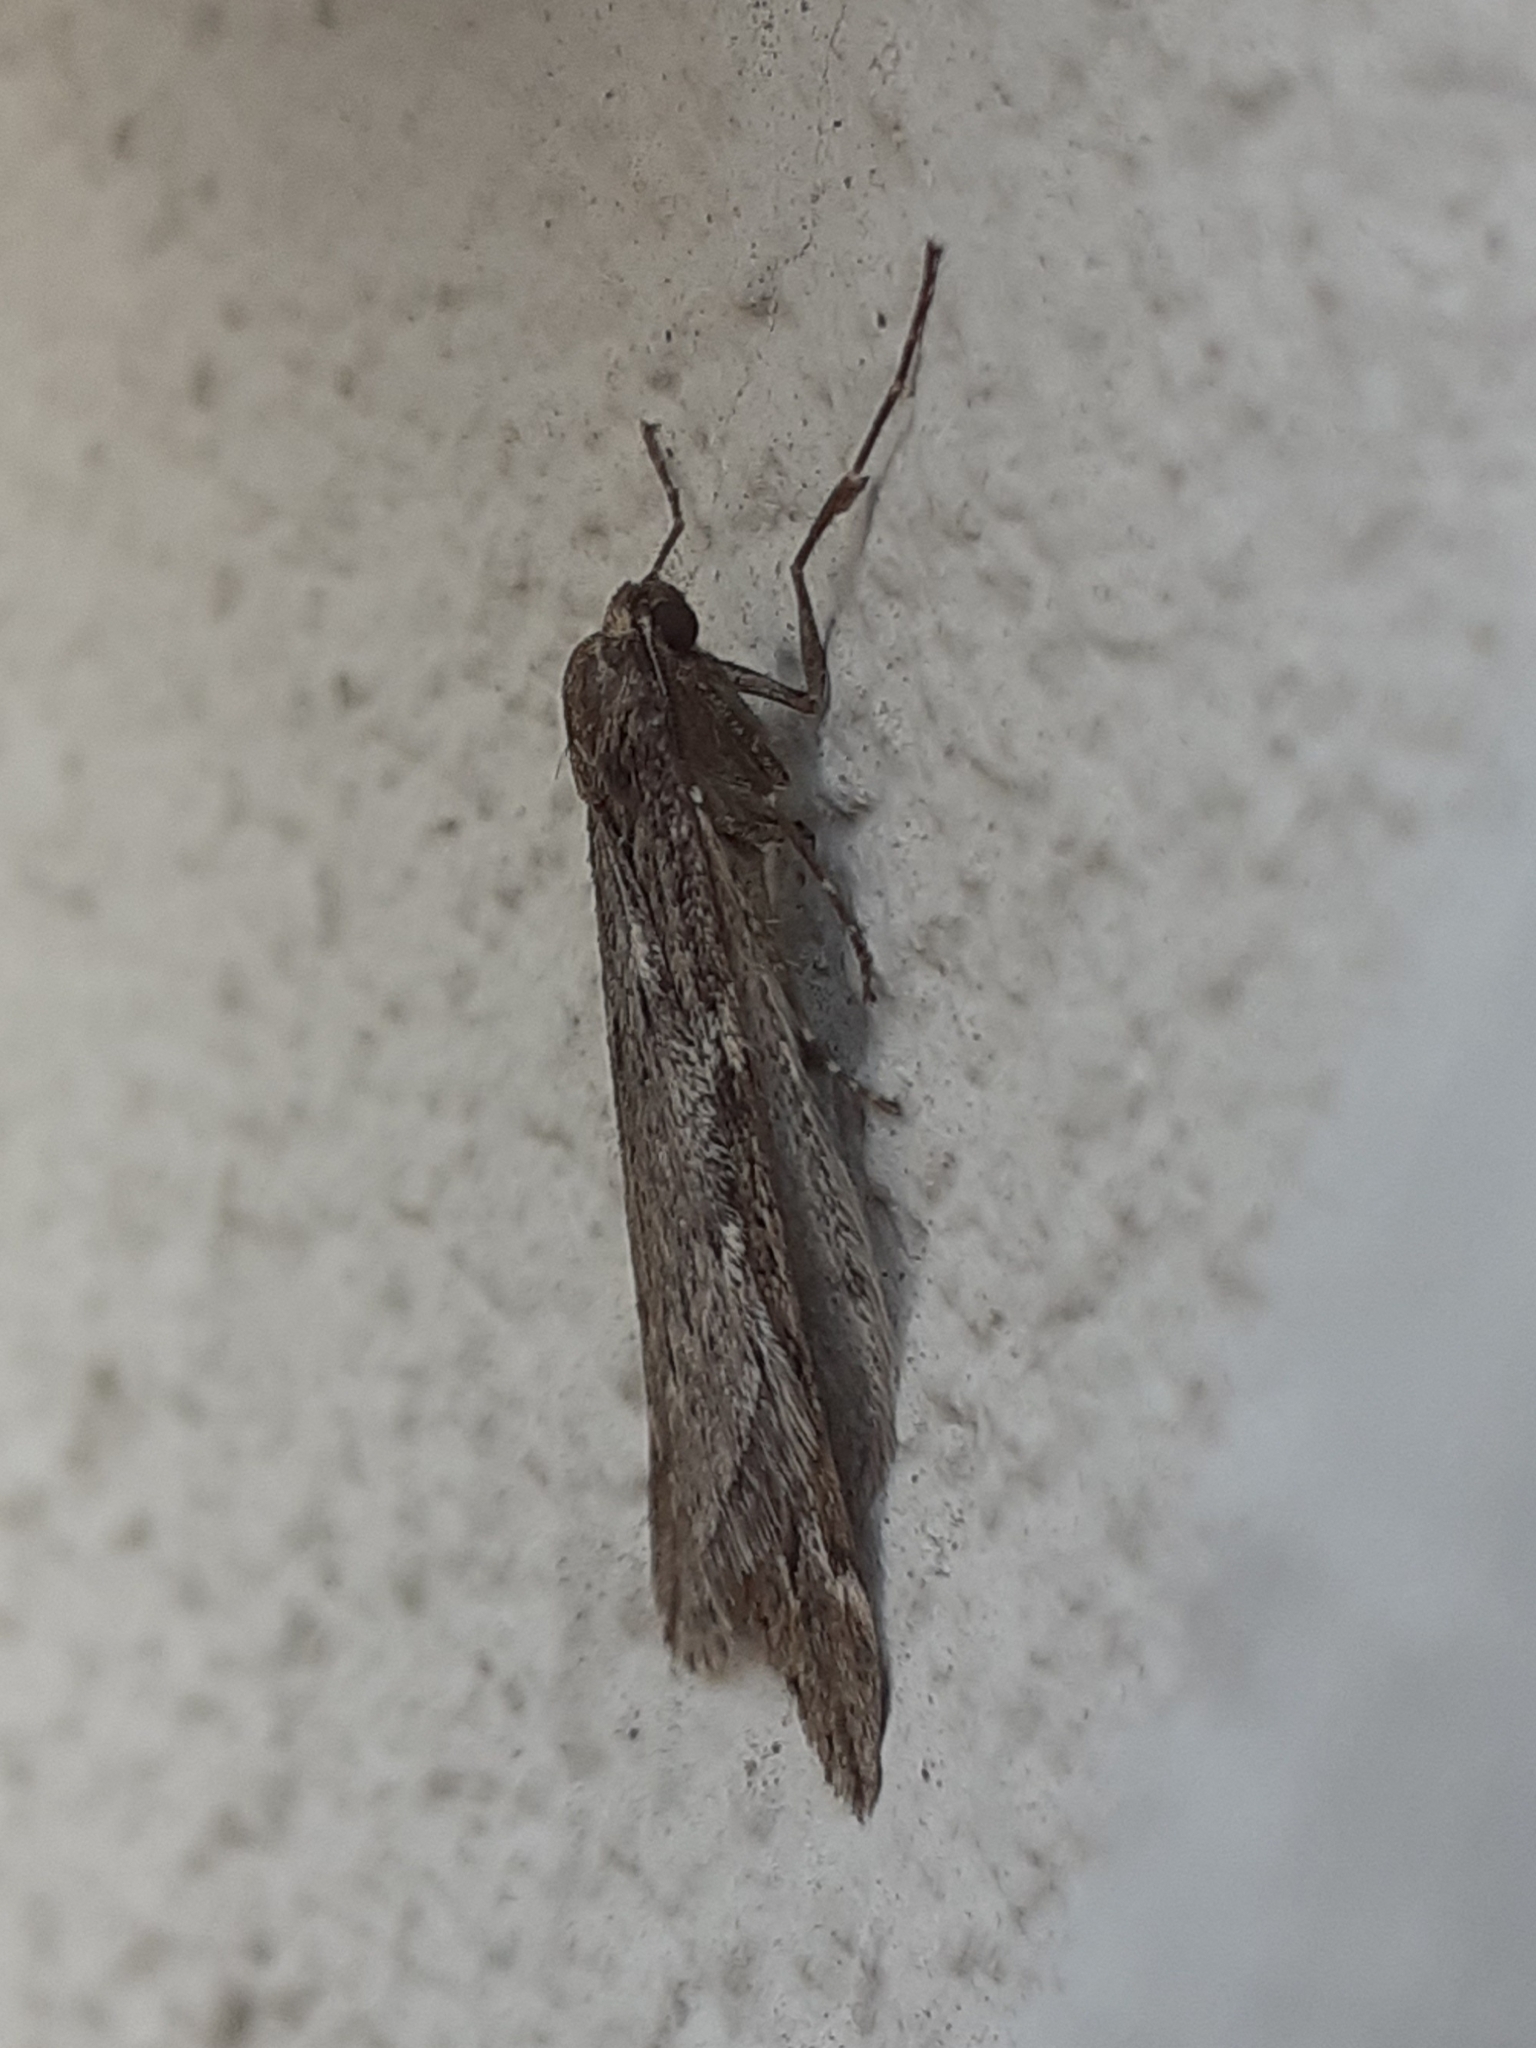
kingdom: Animalia
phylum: Arthropoda
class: Insecta
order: Lepidoptera
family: Geometridae
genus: Alsophila
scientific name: Alsophila aescularia
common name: March moth
